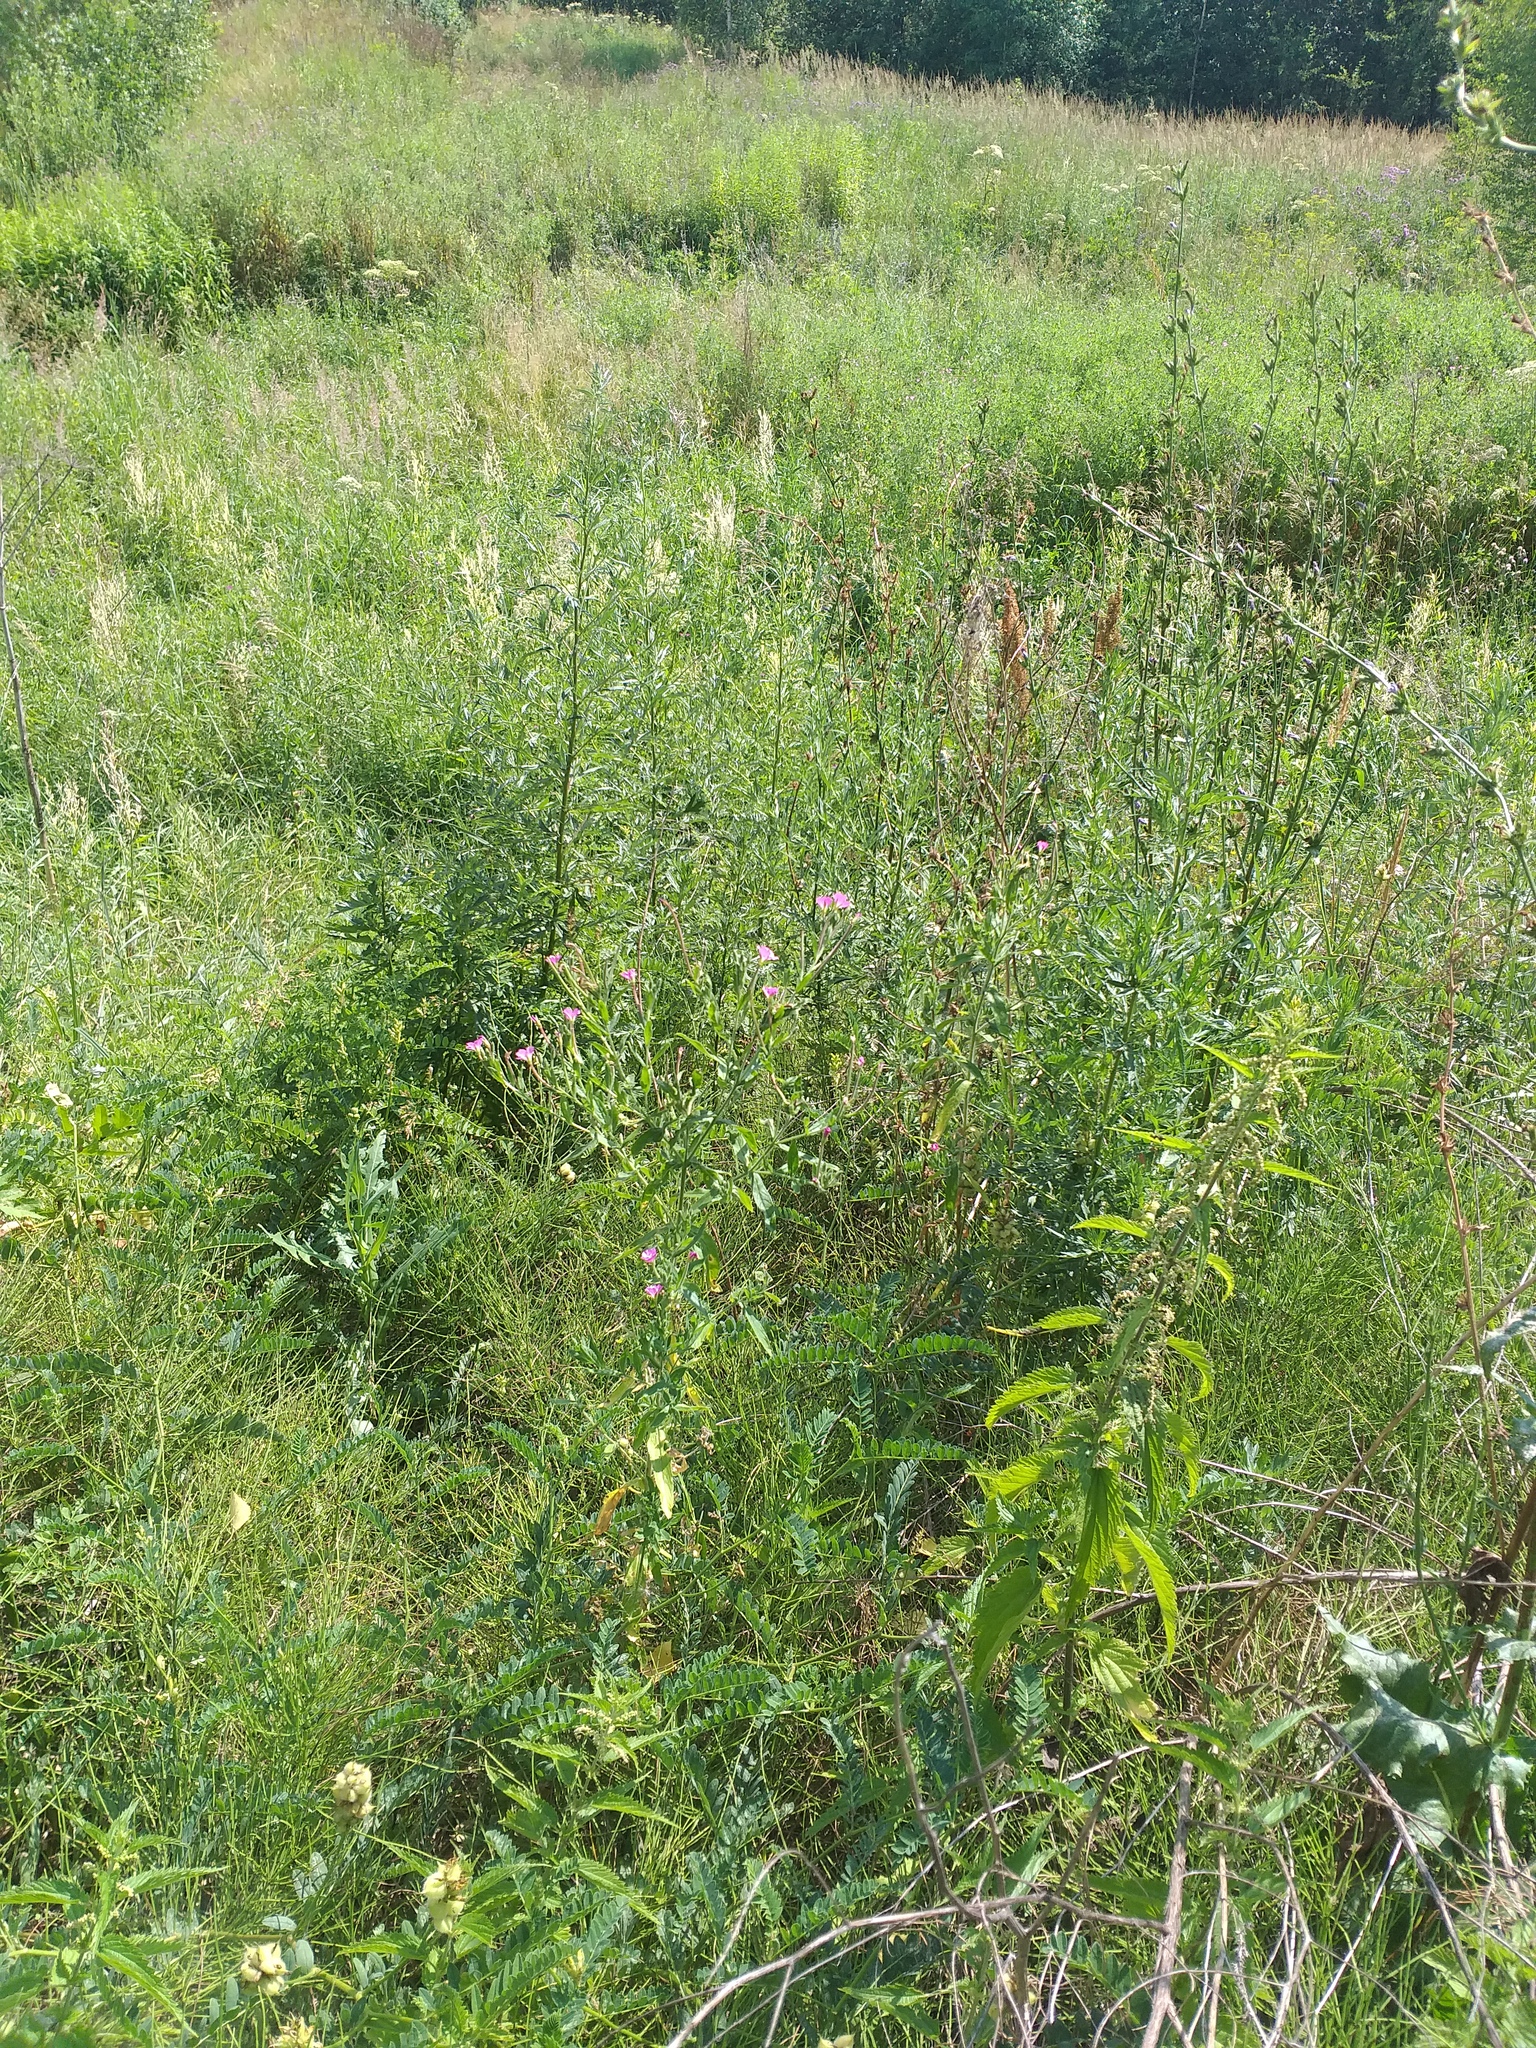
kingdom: Plantae
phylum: Tracheophyta
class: Magnoliopsida
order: Myrtales
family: Onagraceae
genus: Epilobium
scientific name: Epilobium hirsutum
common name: Great willowherb
